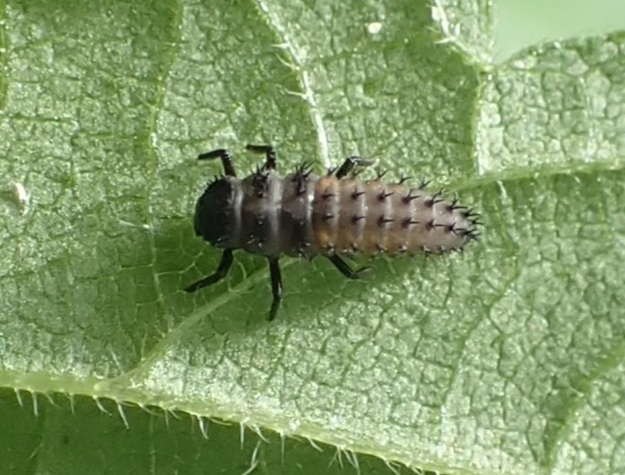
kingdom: Animalia
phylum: Arthropoda
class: Insecta
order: Coleoptera
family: Coccinellidae
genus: Harmonia
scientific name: Harmonia axyridis
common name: Harlequin ladybird
